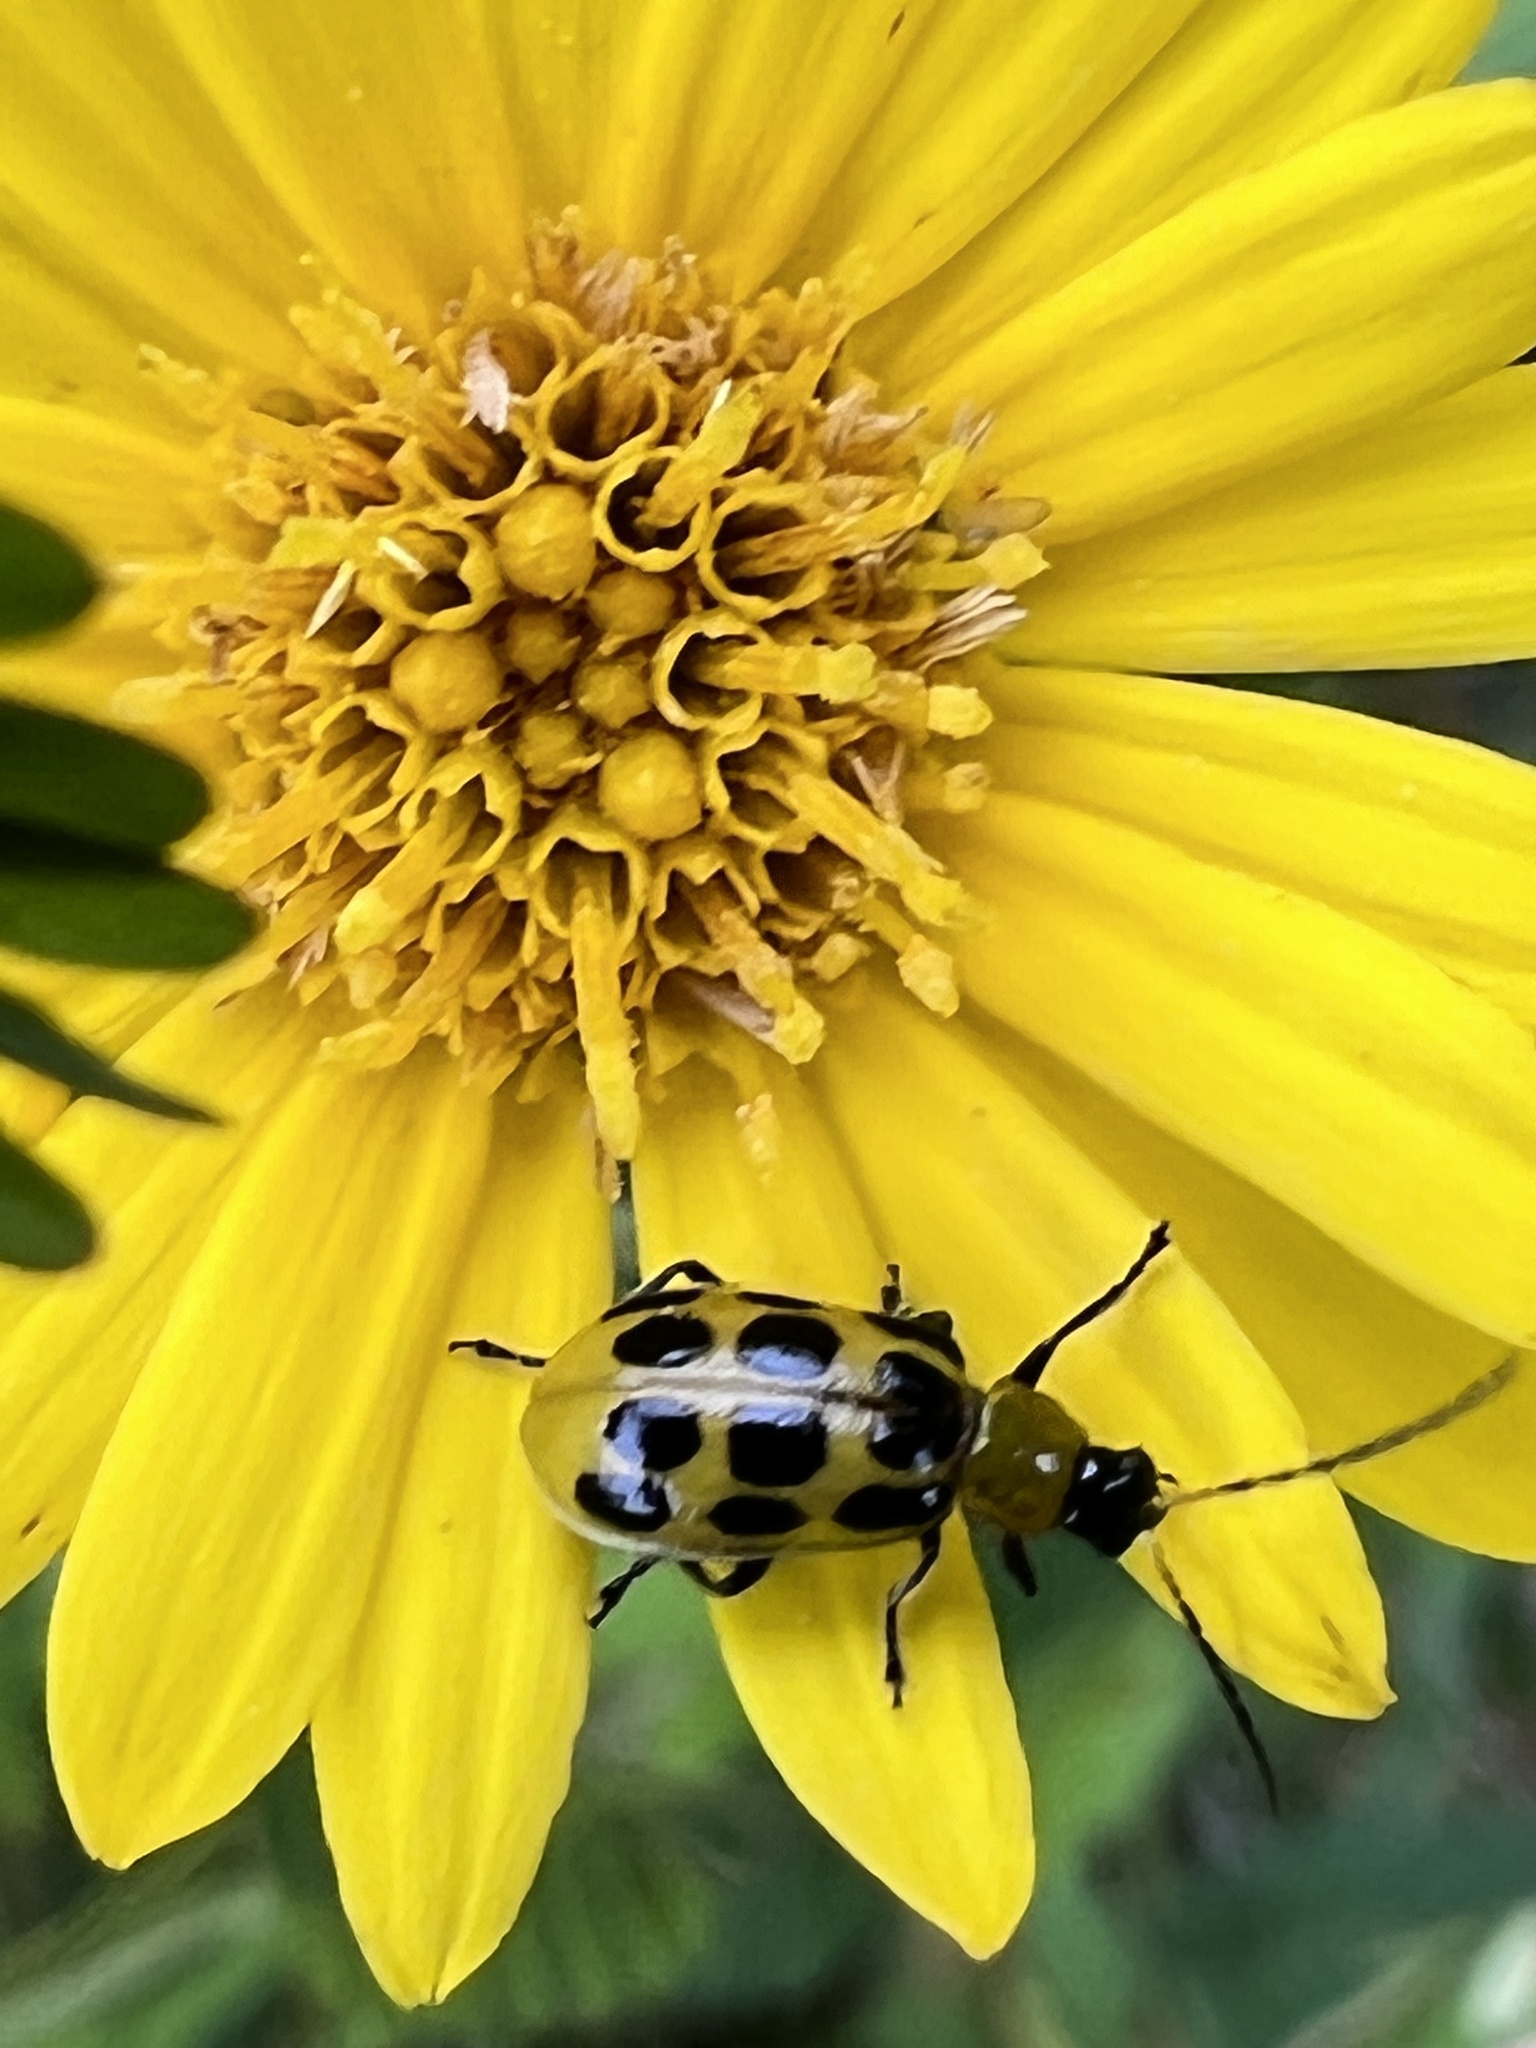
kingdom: Animalia
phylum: Arthropoda
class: Insecta
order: Coleoptera
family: Chrysomelidae
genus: Diabrotica
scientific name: Diabrotica undecimpunctata
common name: Spotted cucumber beetle
